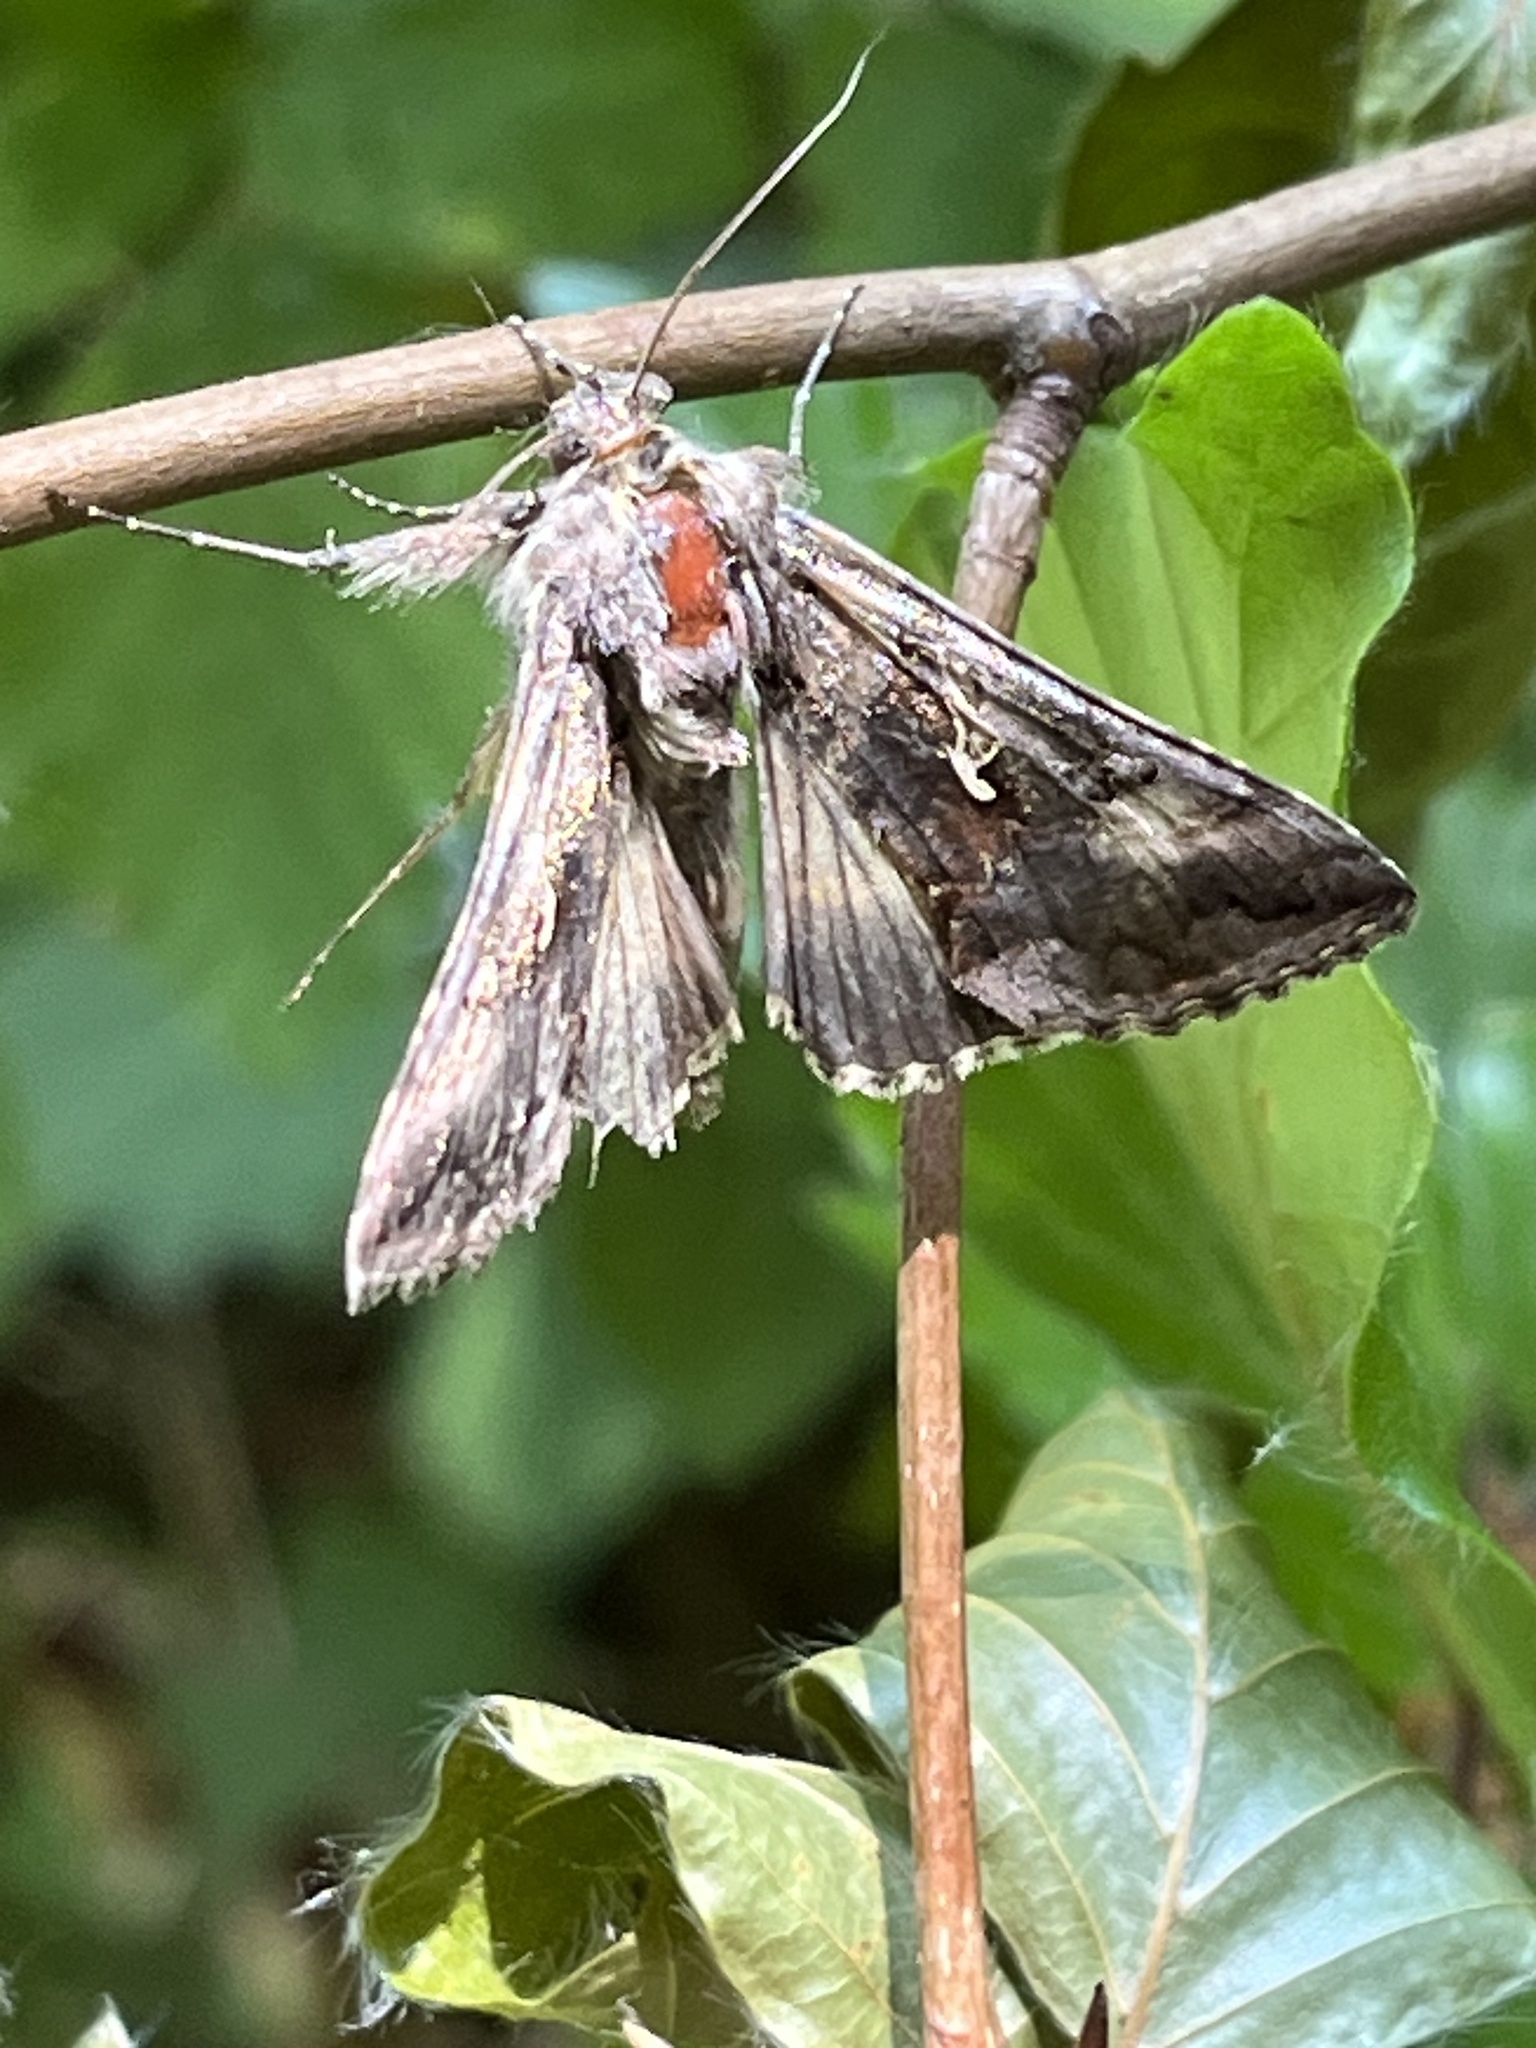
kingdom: Animalia
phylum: Arthropoda
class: Insecta
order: Lepidoptera
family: Noctuidae
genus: Autographa
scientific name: Autographa gamma
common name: Silver y
